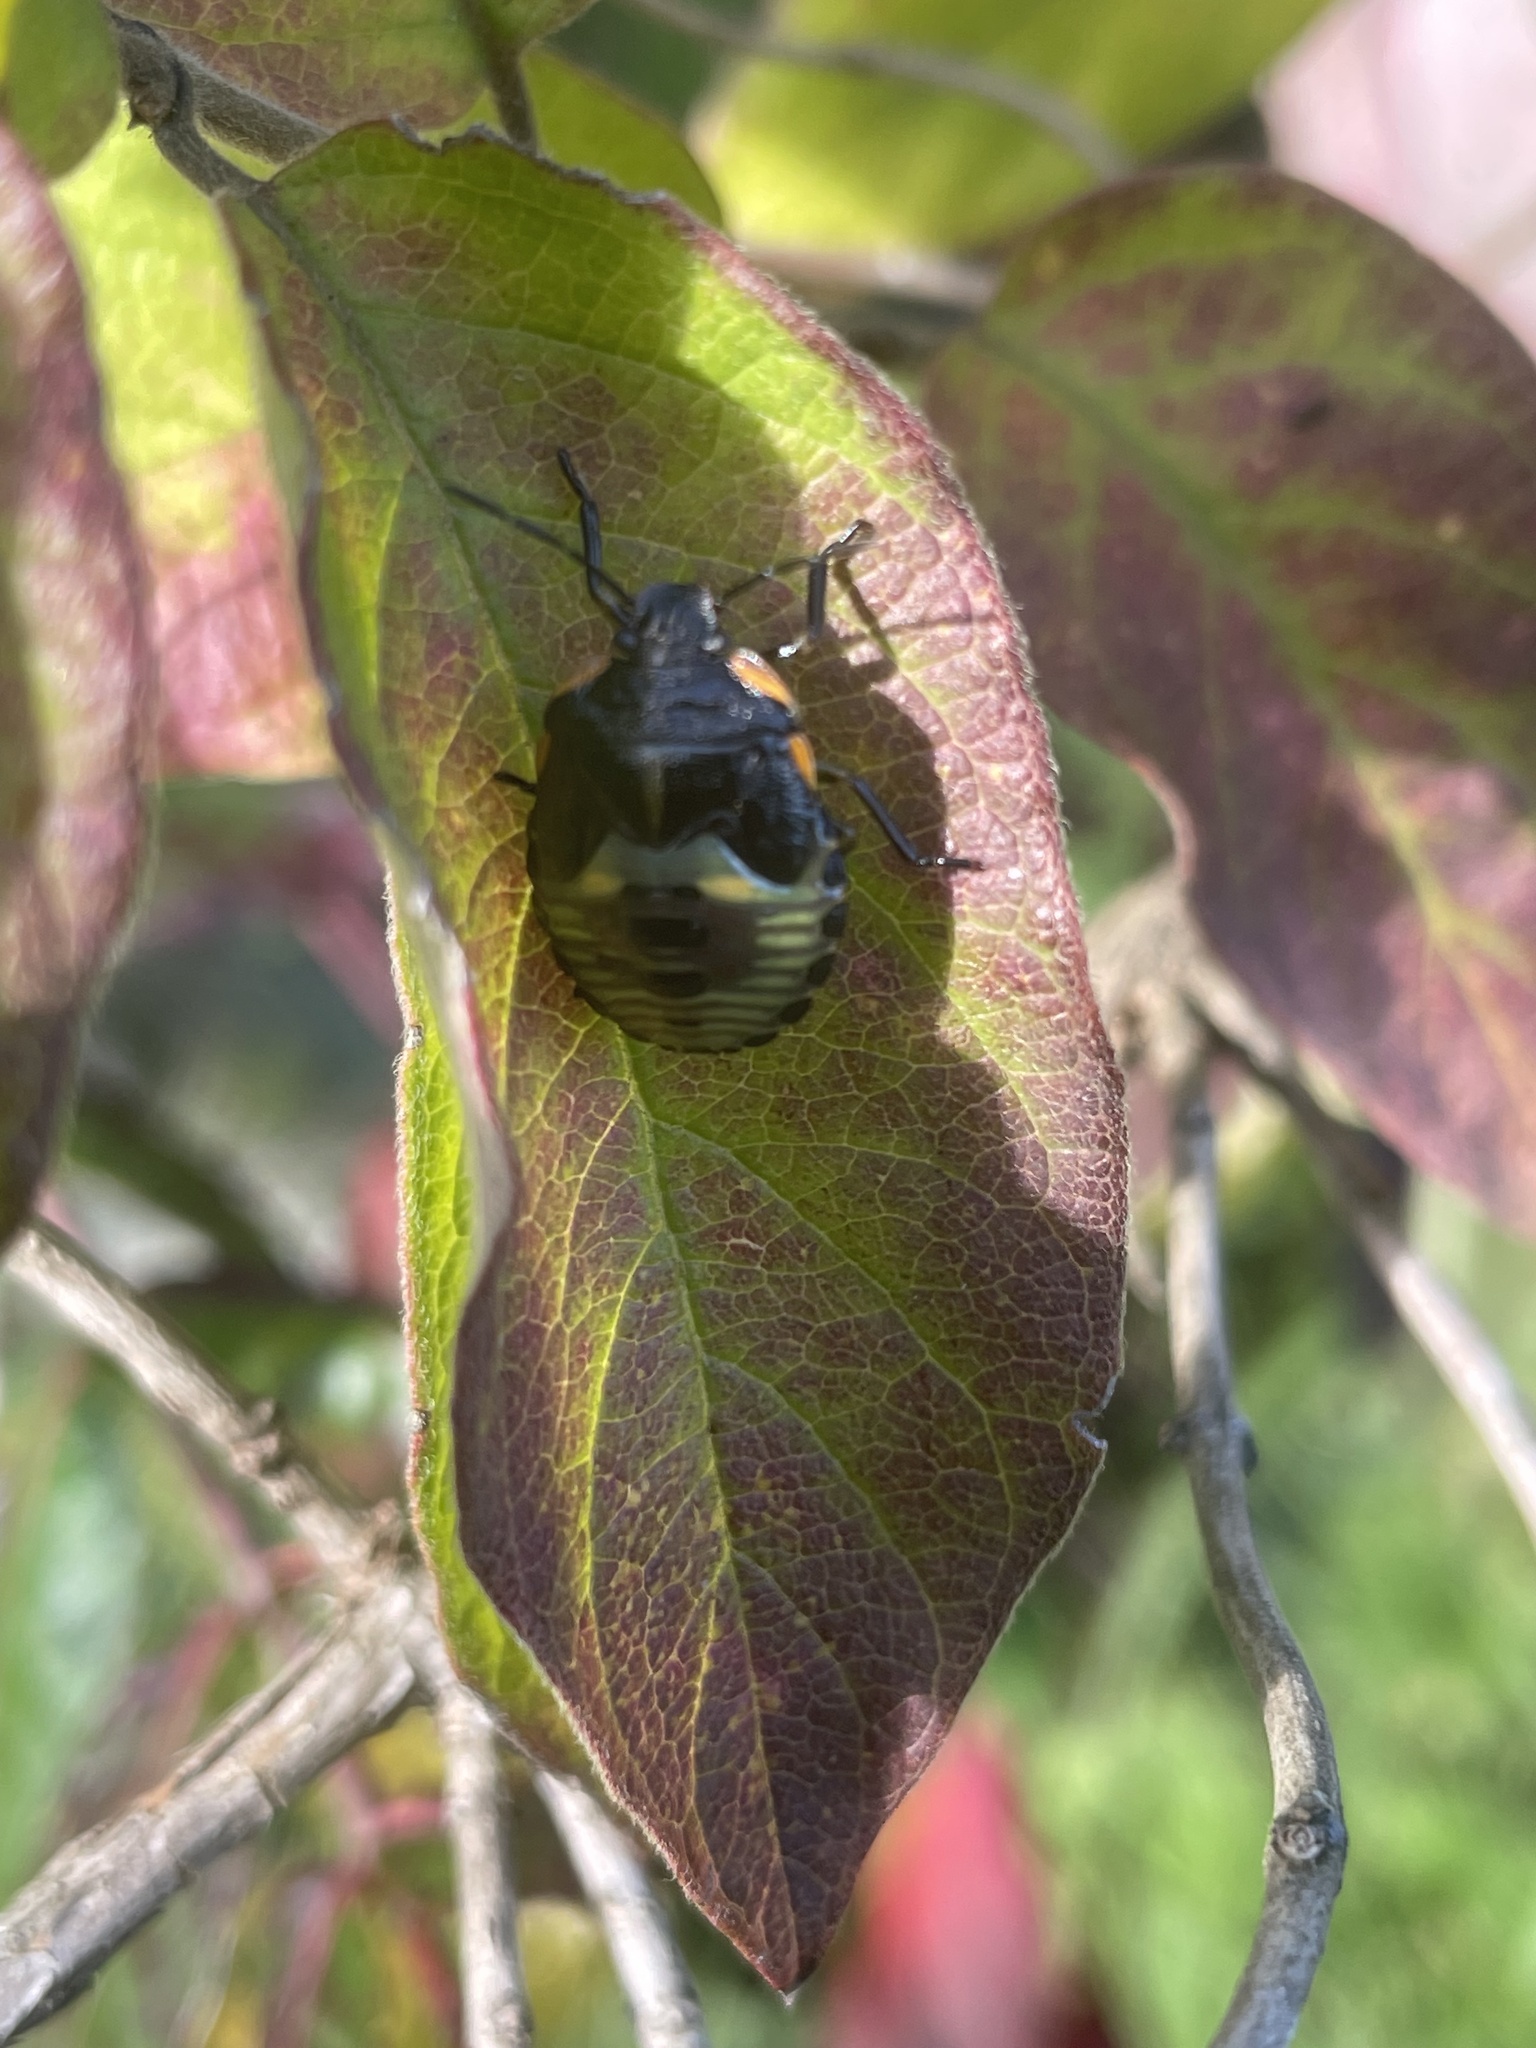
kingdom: Animalia
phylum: Arthropoda
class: Insecta
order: Hemiptera
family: Pentatomidae
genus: Chinavia
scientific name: Chinavia hilaris
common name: Green stink bug
